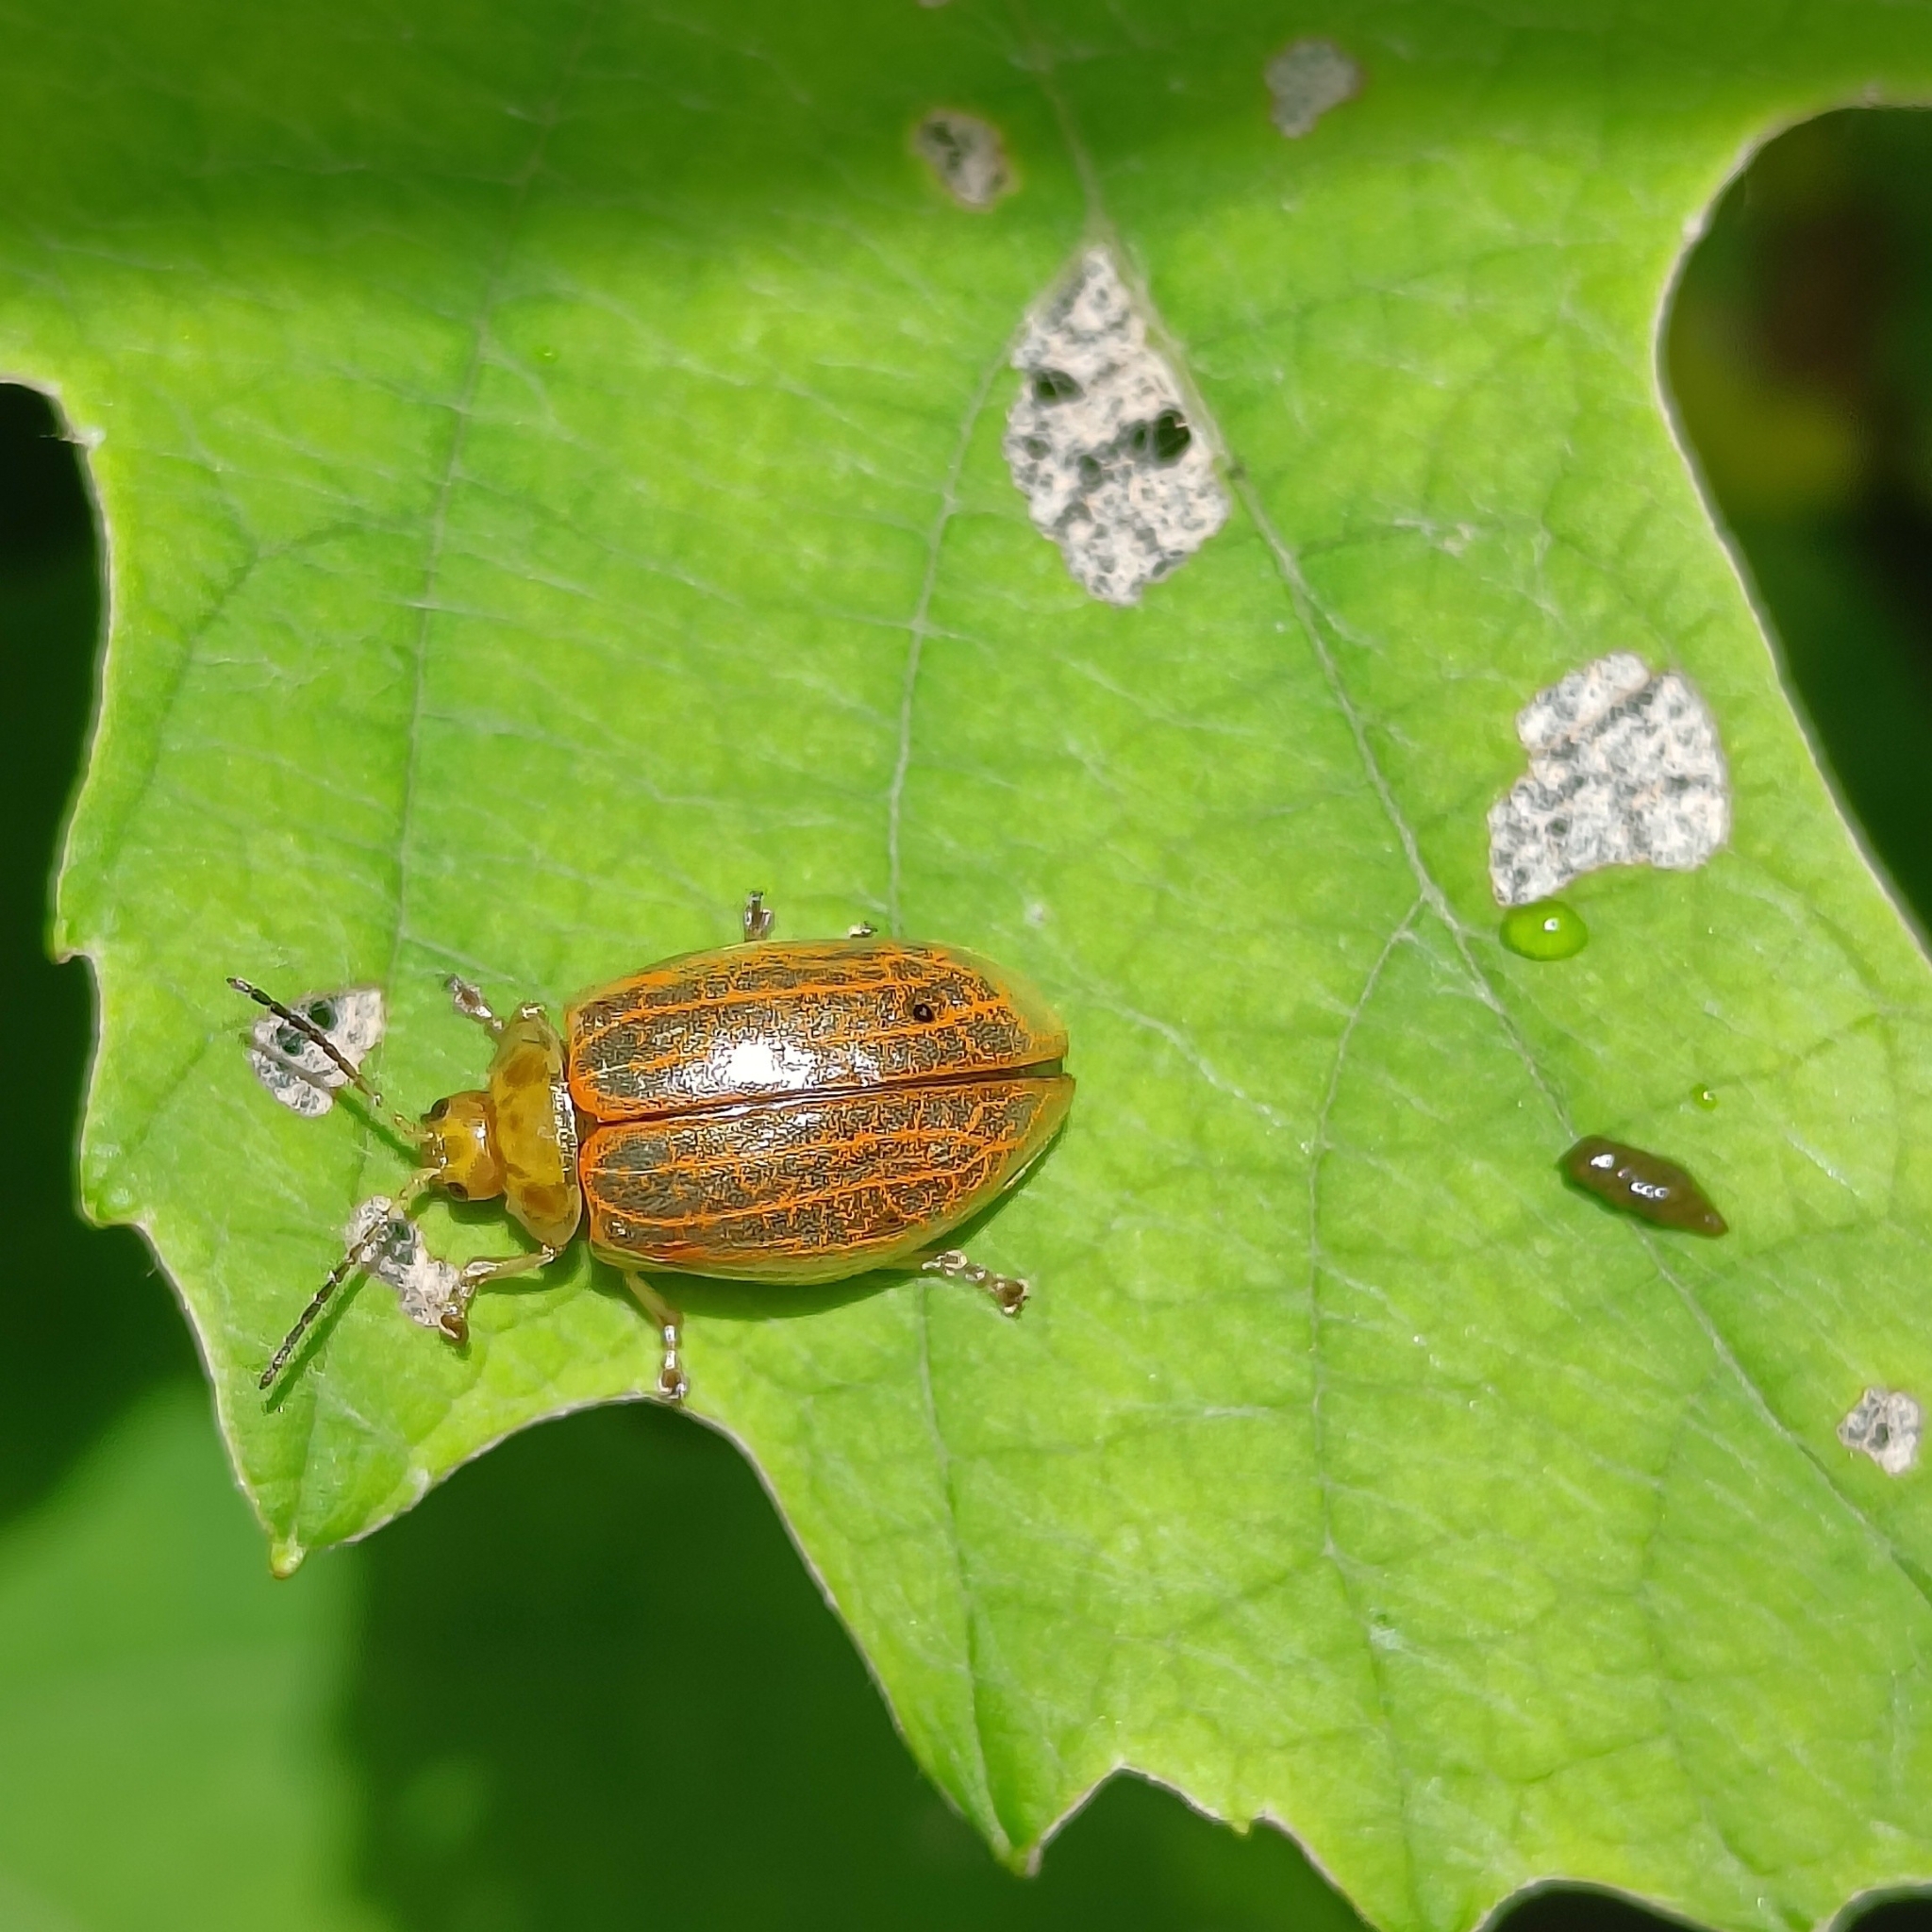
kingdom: Animalia
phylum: Arthropoda
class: Insecta
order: Coleoptera
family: Chrysomelidae
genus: Oides
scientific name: Oides scutellata
